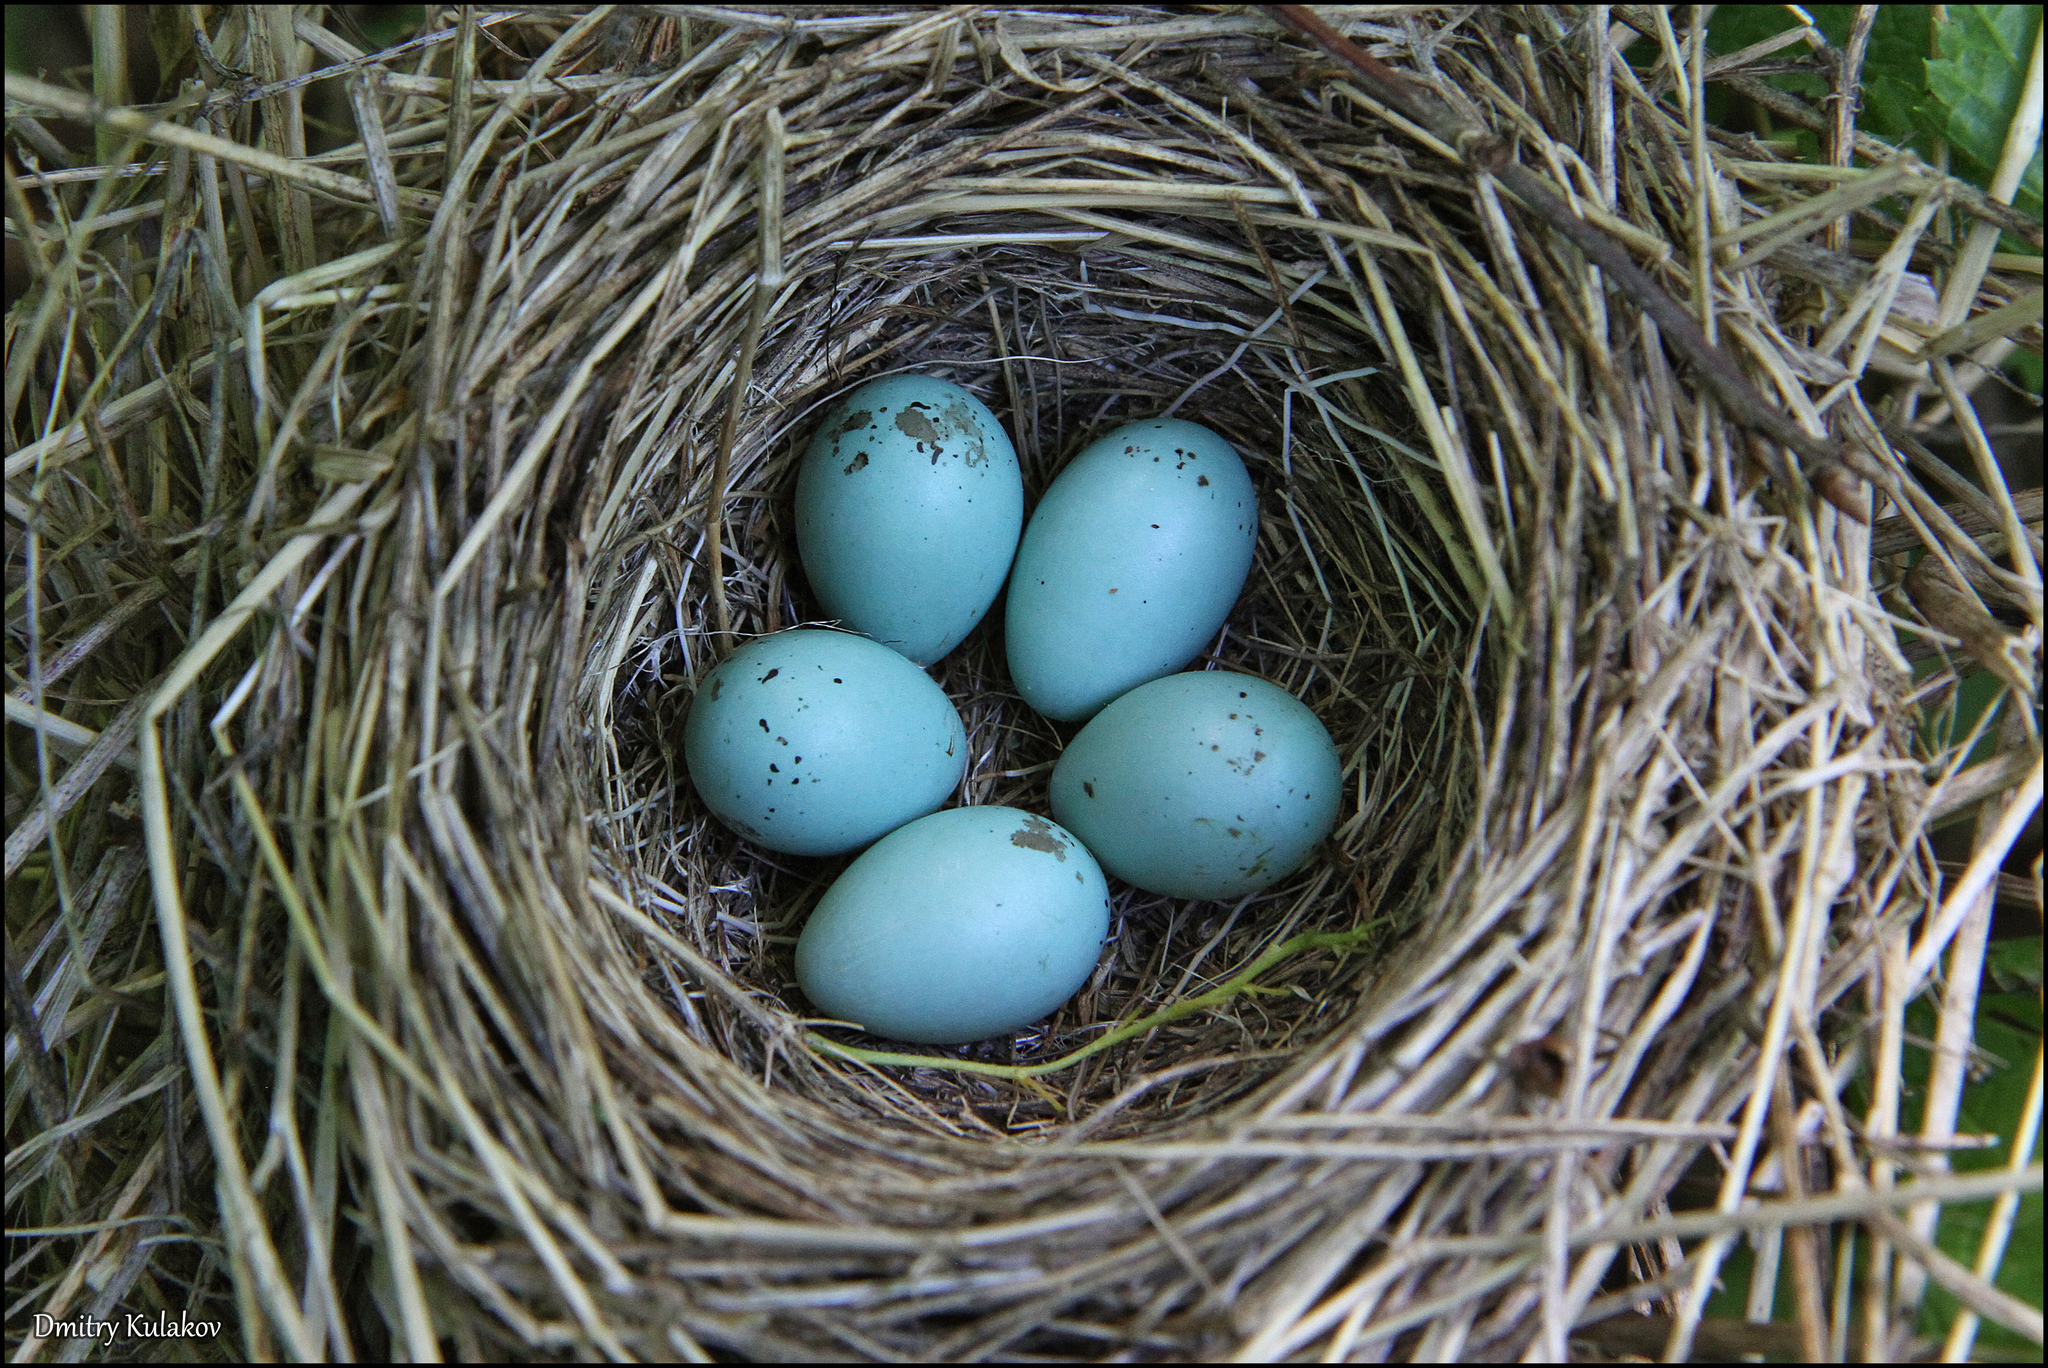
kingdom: Animalia
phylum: Chordata
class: Aves
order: Passeriformes
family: Fringillidae
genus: Carpodacus
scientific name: Carpodacus erythrinus
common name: Common rosefinch
